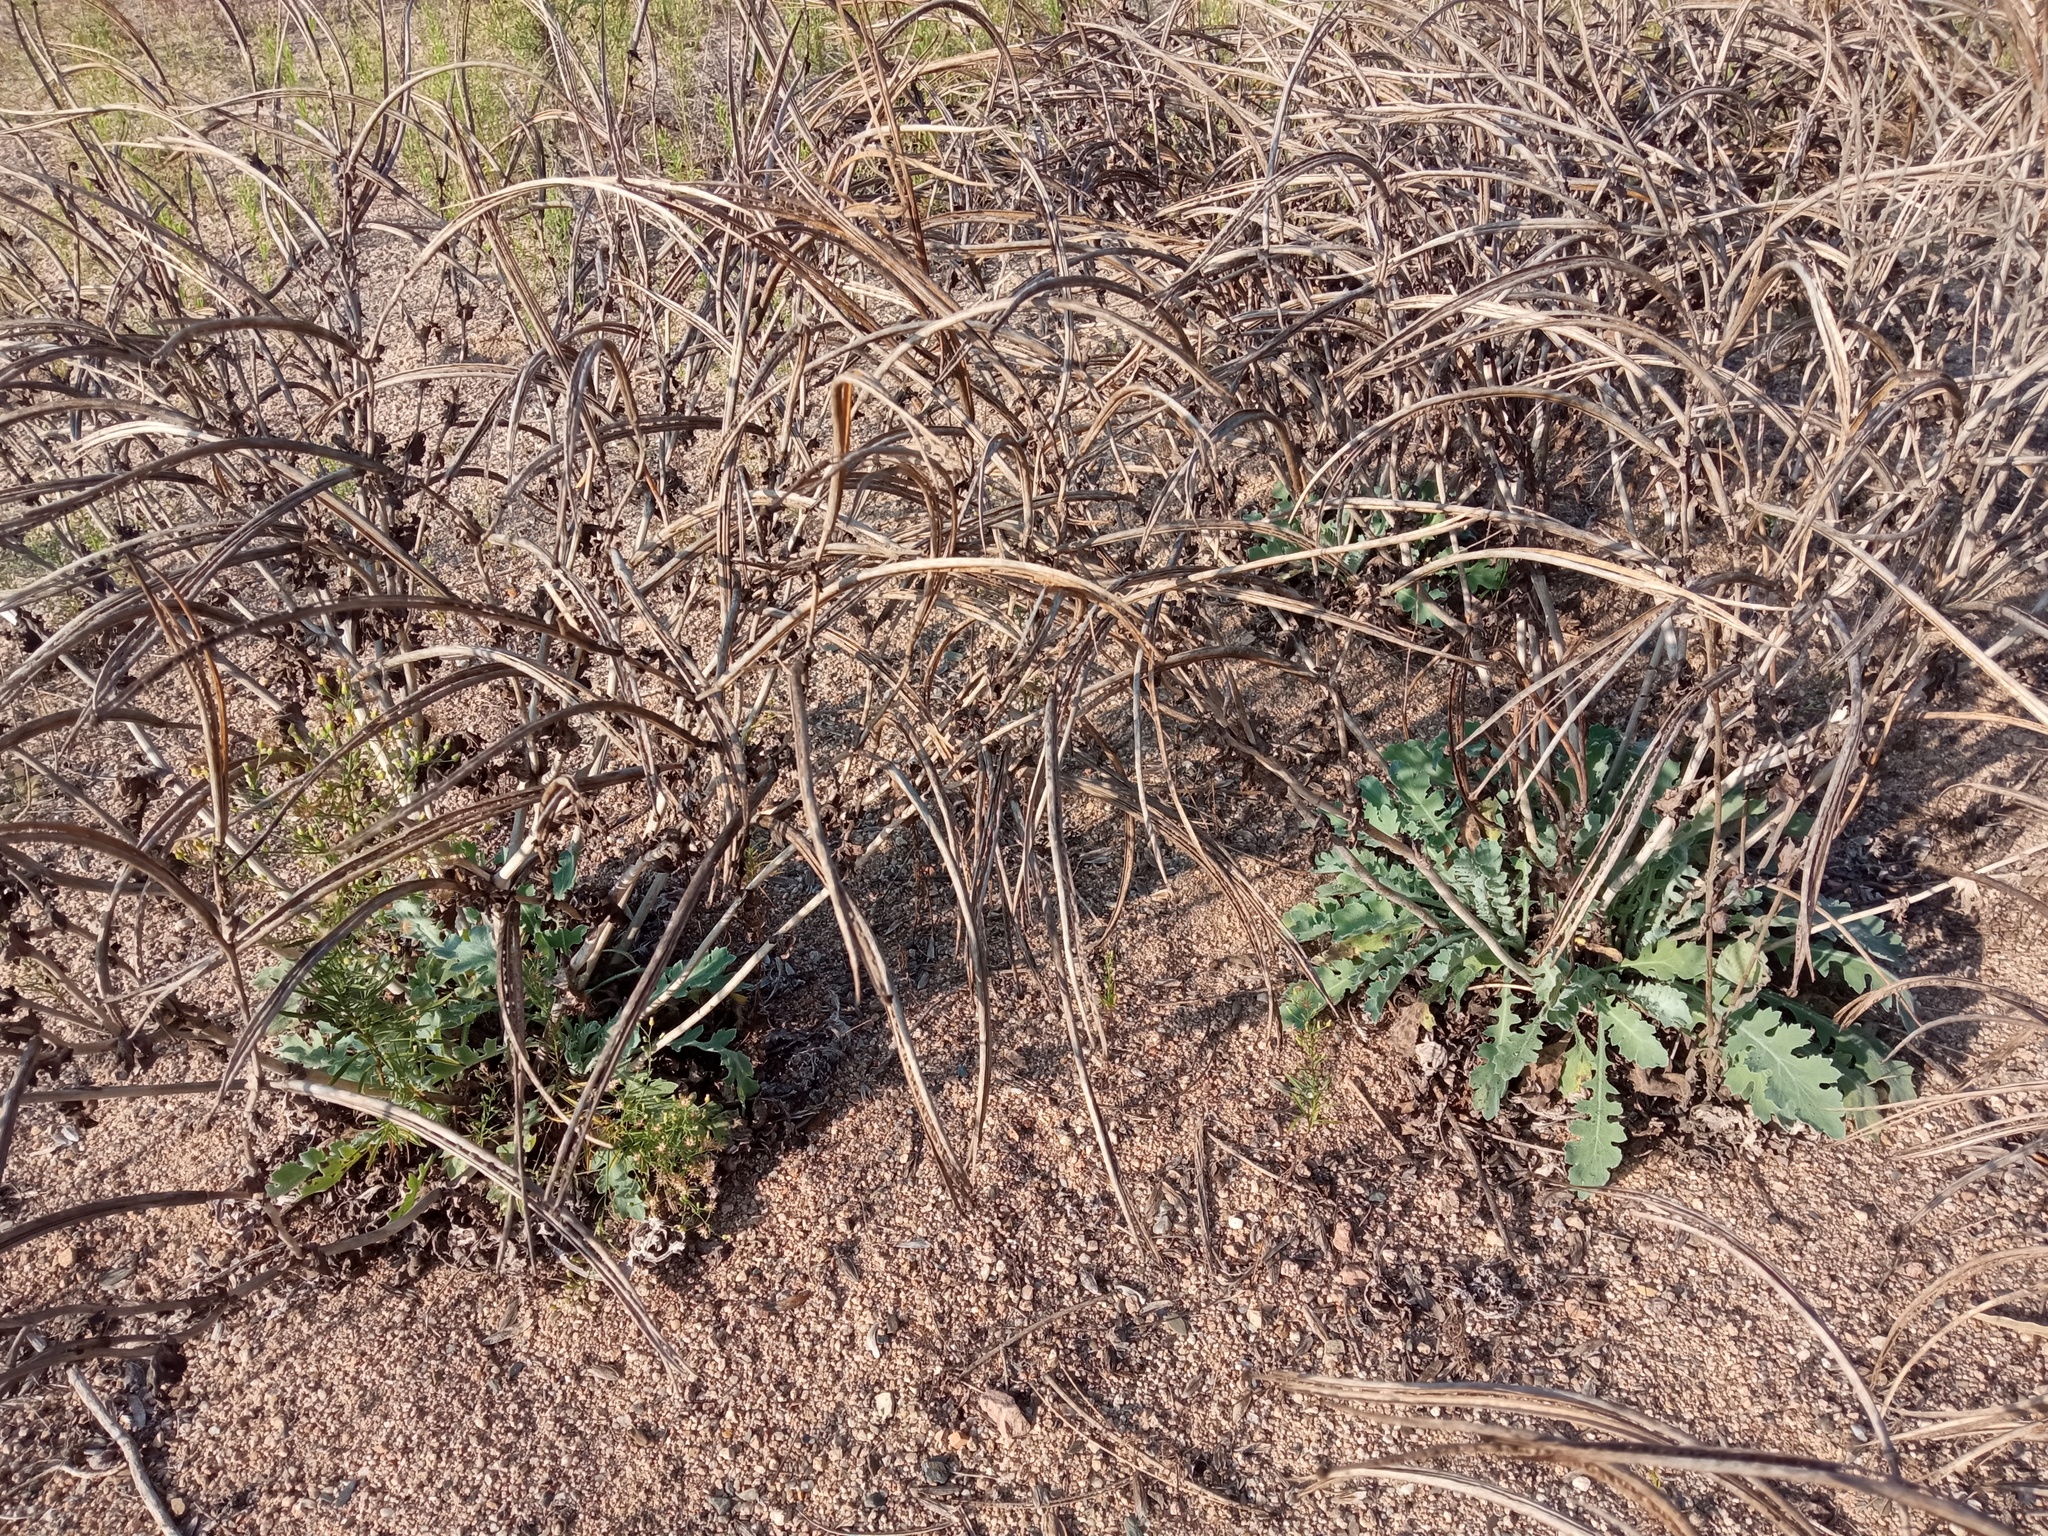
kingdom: Plantae
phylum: Tracheophyta
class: Magnoliopsida
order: Ranunculales
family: Papaveraceae
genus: Glaucium
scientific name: Glaucium flavum
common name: Yellow horned-poppy
